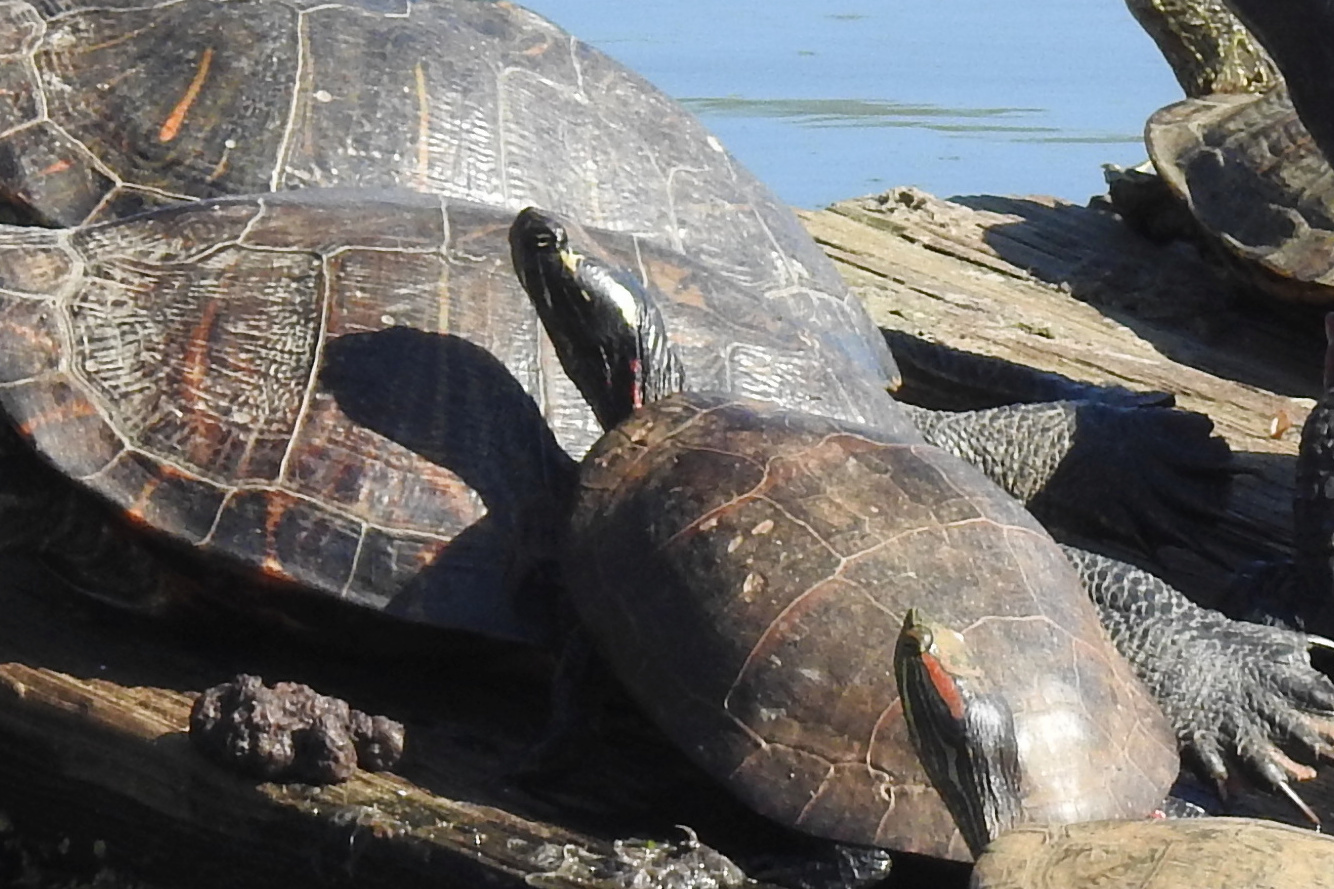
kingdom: Animalia
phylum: Chordata
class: Testudines
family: Emydidae
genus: Chrysemys
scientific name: Chrysemys picta
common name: Painted turtle
